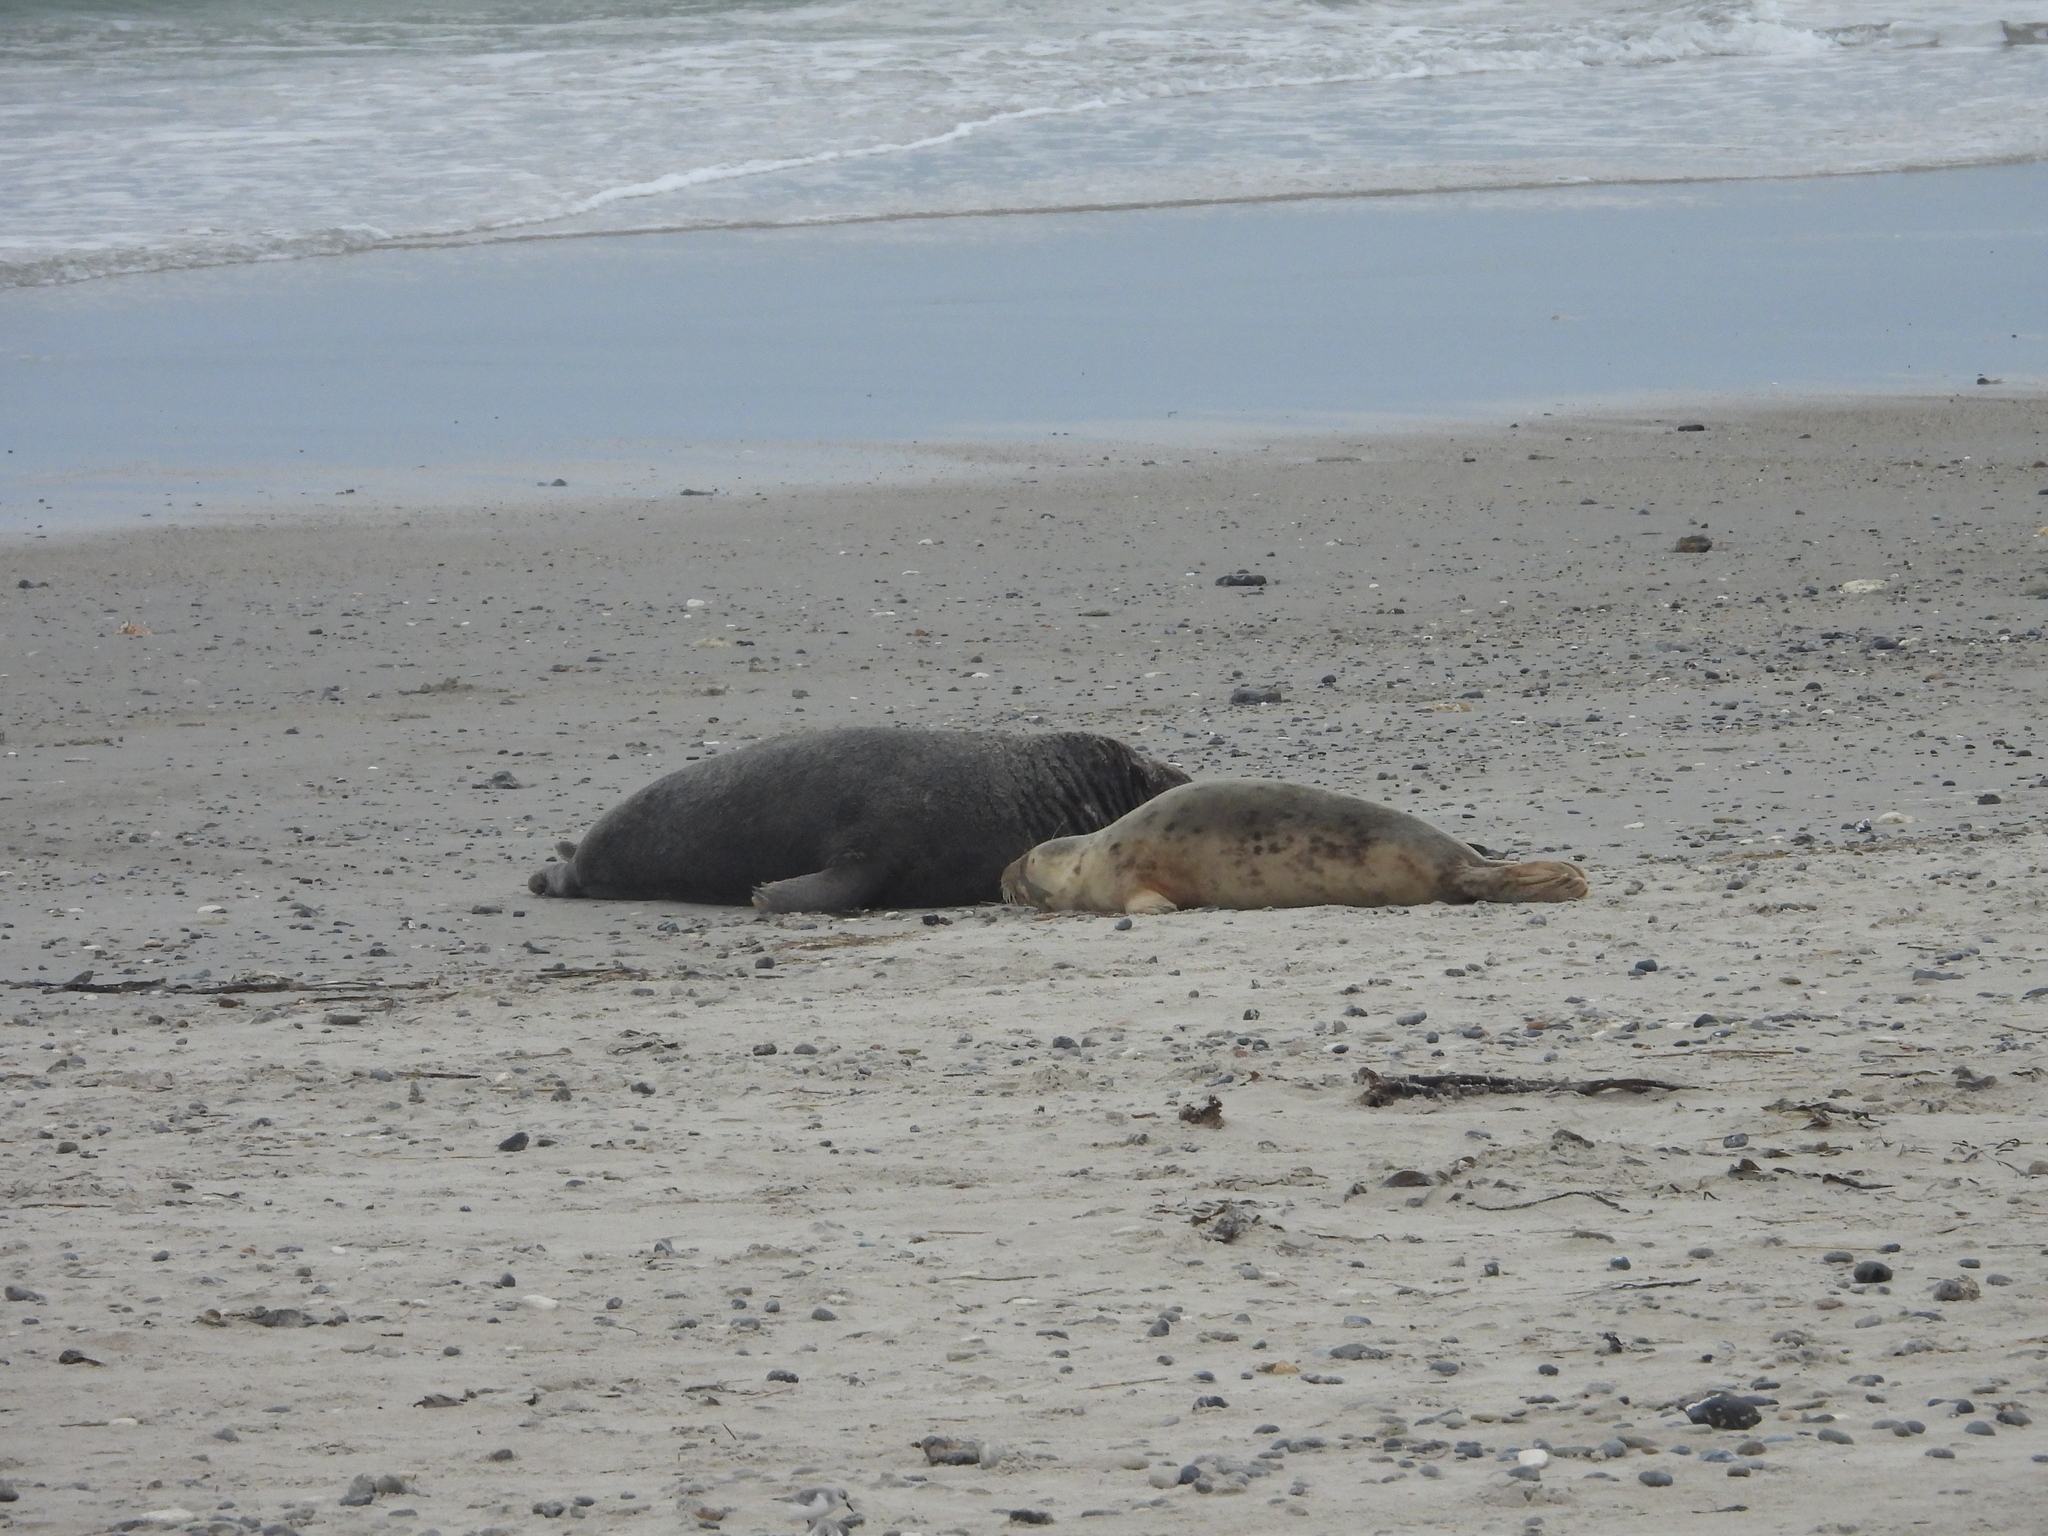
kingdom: Animalia
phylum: Chordata
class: Mammalia
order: Carnivora
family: Phocidae
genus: Halichoerus
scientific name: Halichoerus grypus
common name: Grey seal
